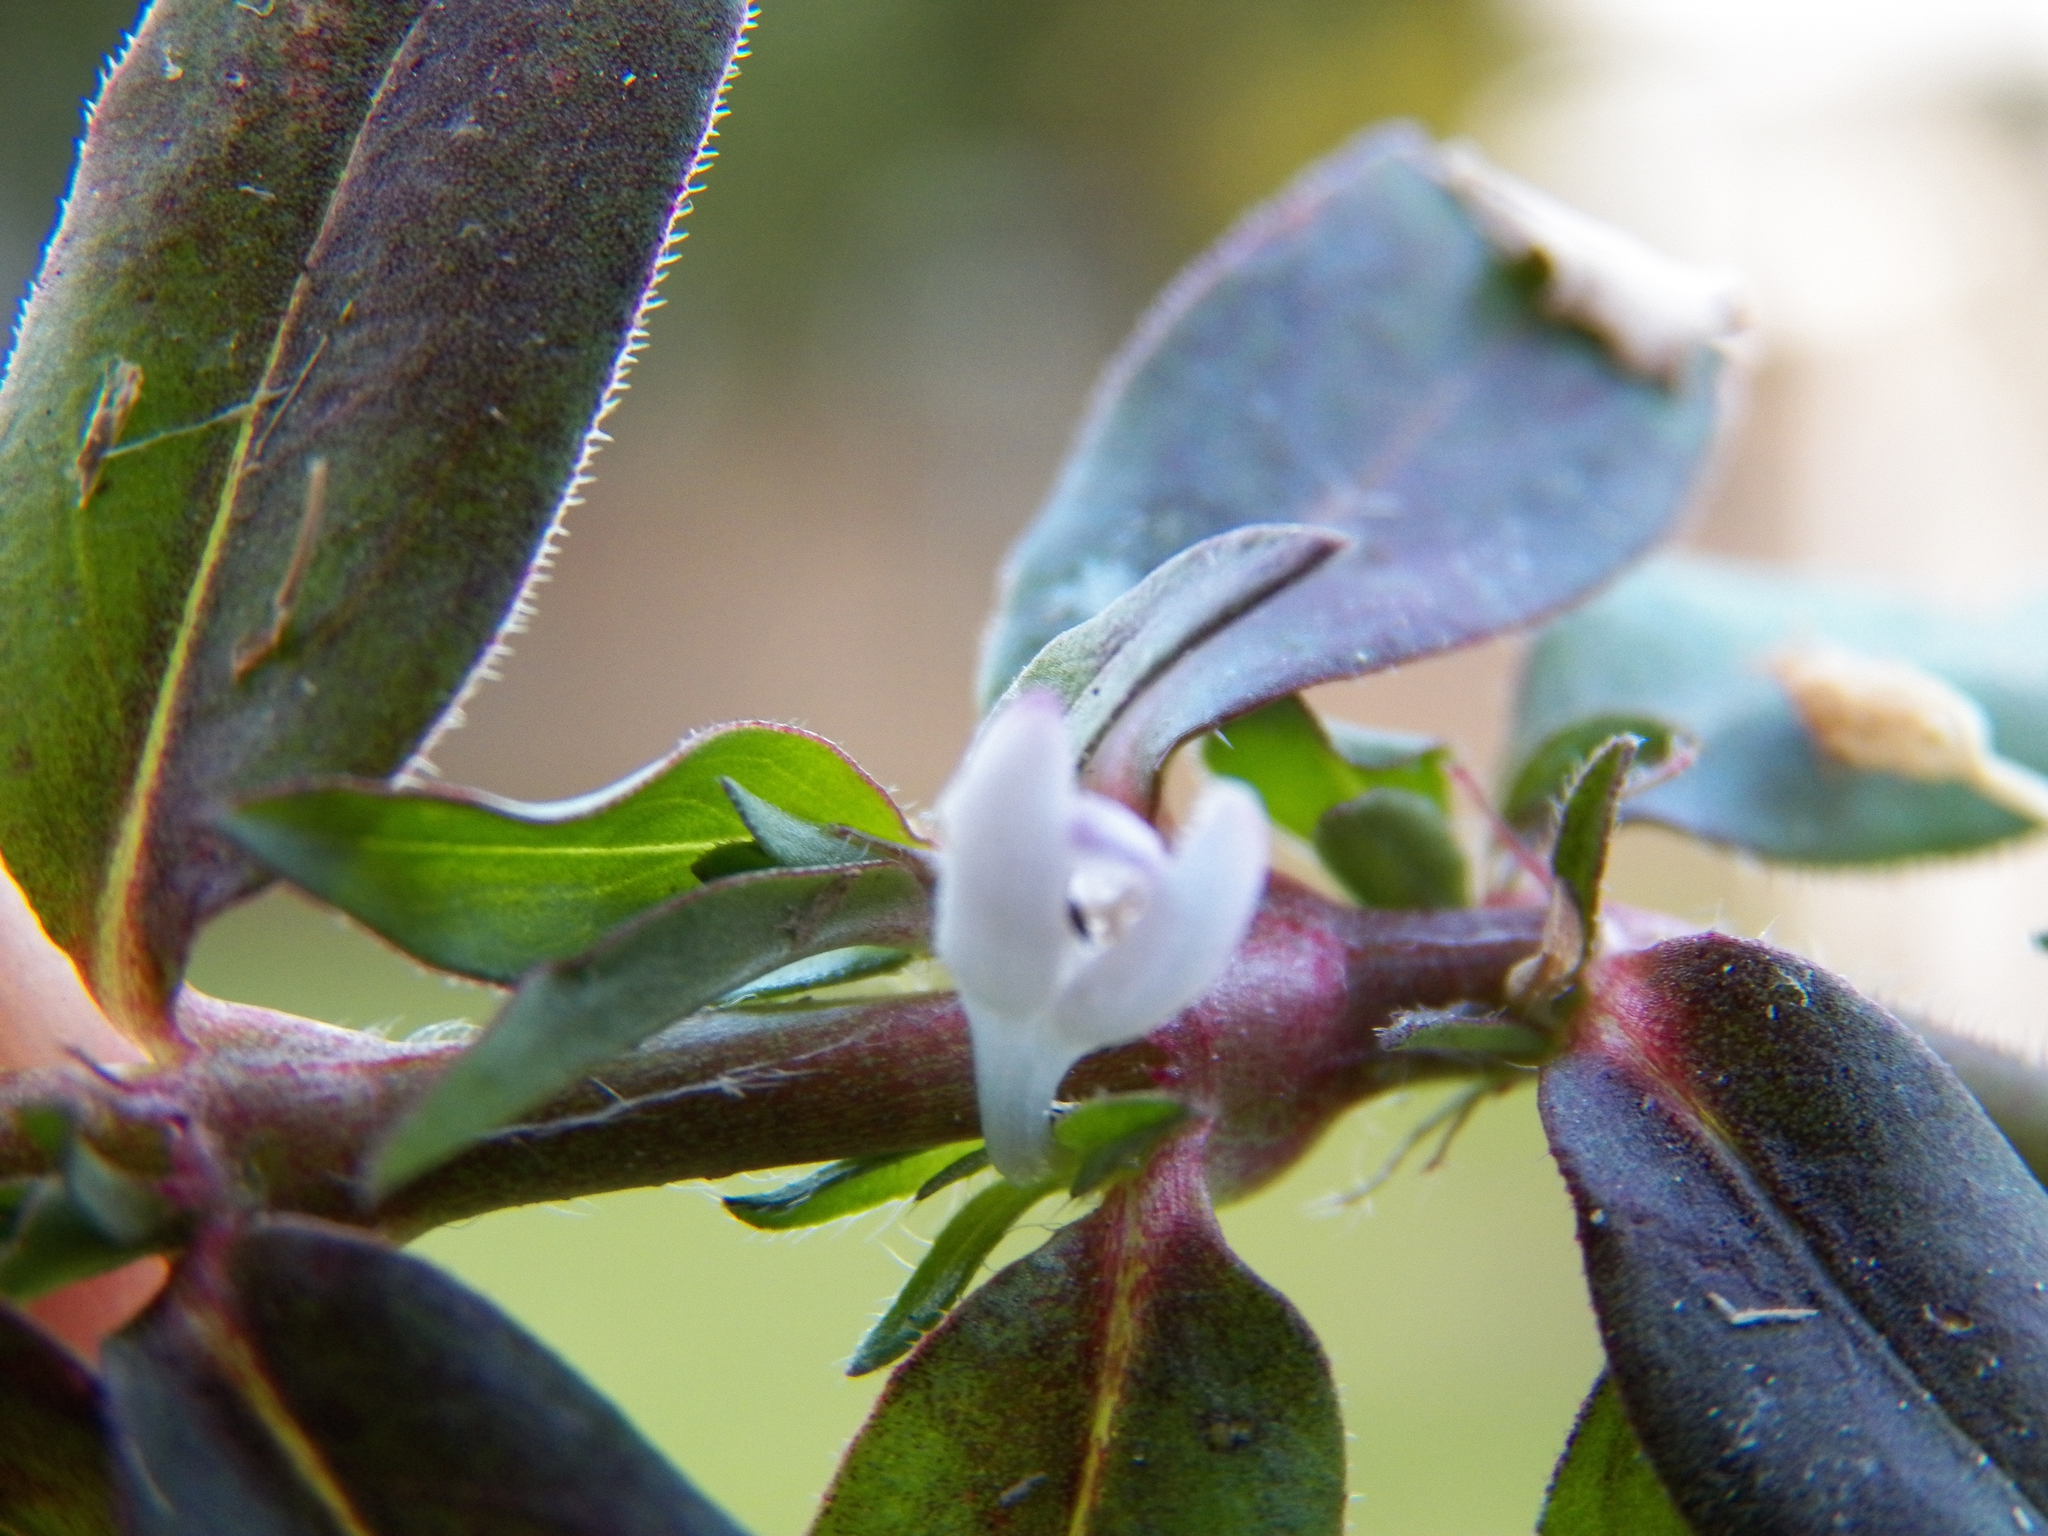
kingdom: Plantae
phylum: Tracheophyta
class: Magnoliopsida
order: Gentianales
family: Rubiaceae
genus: Diodia
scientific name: Diodia virginiana
